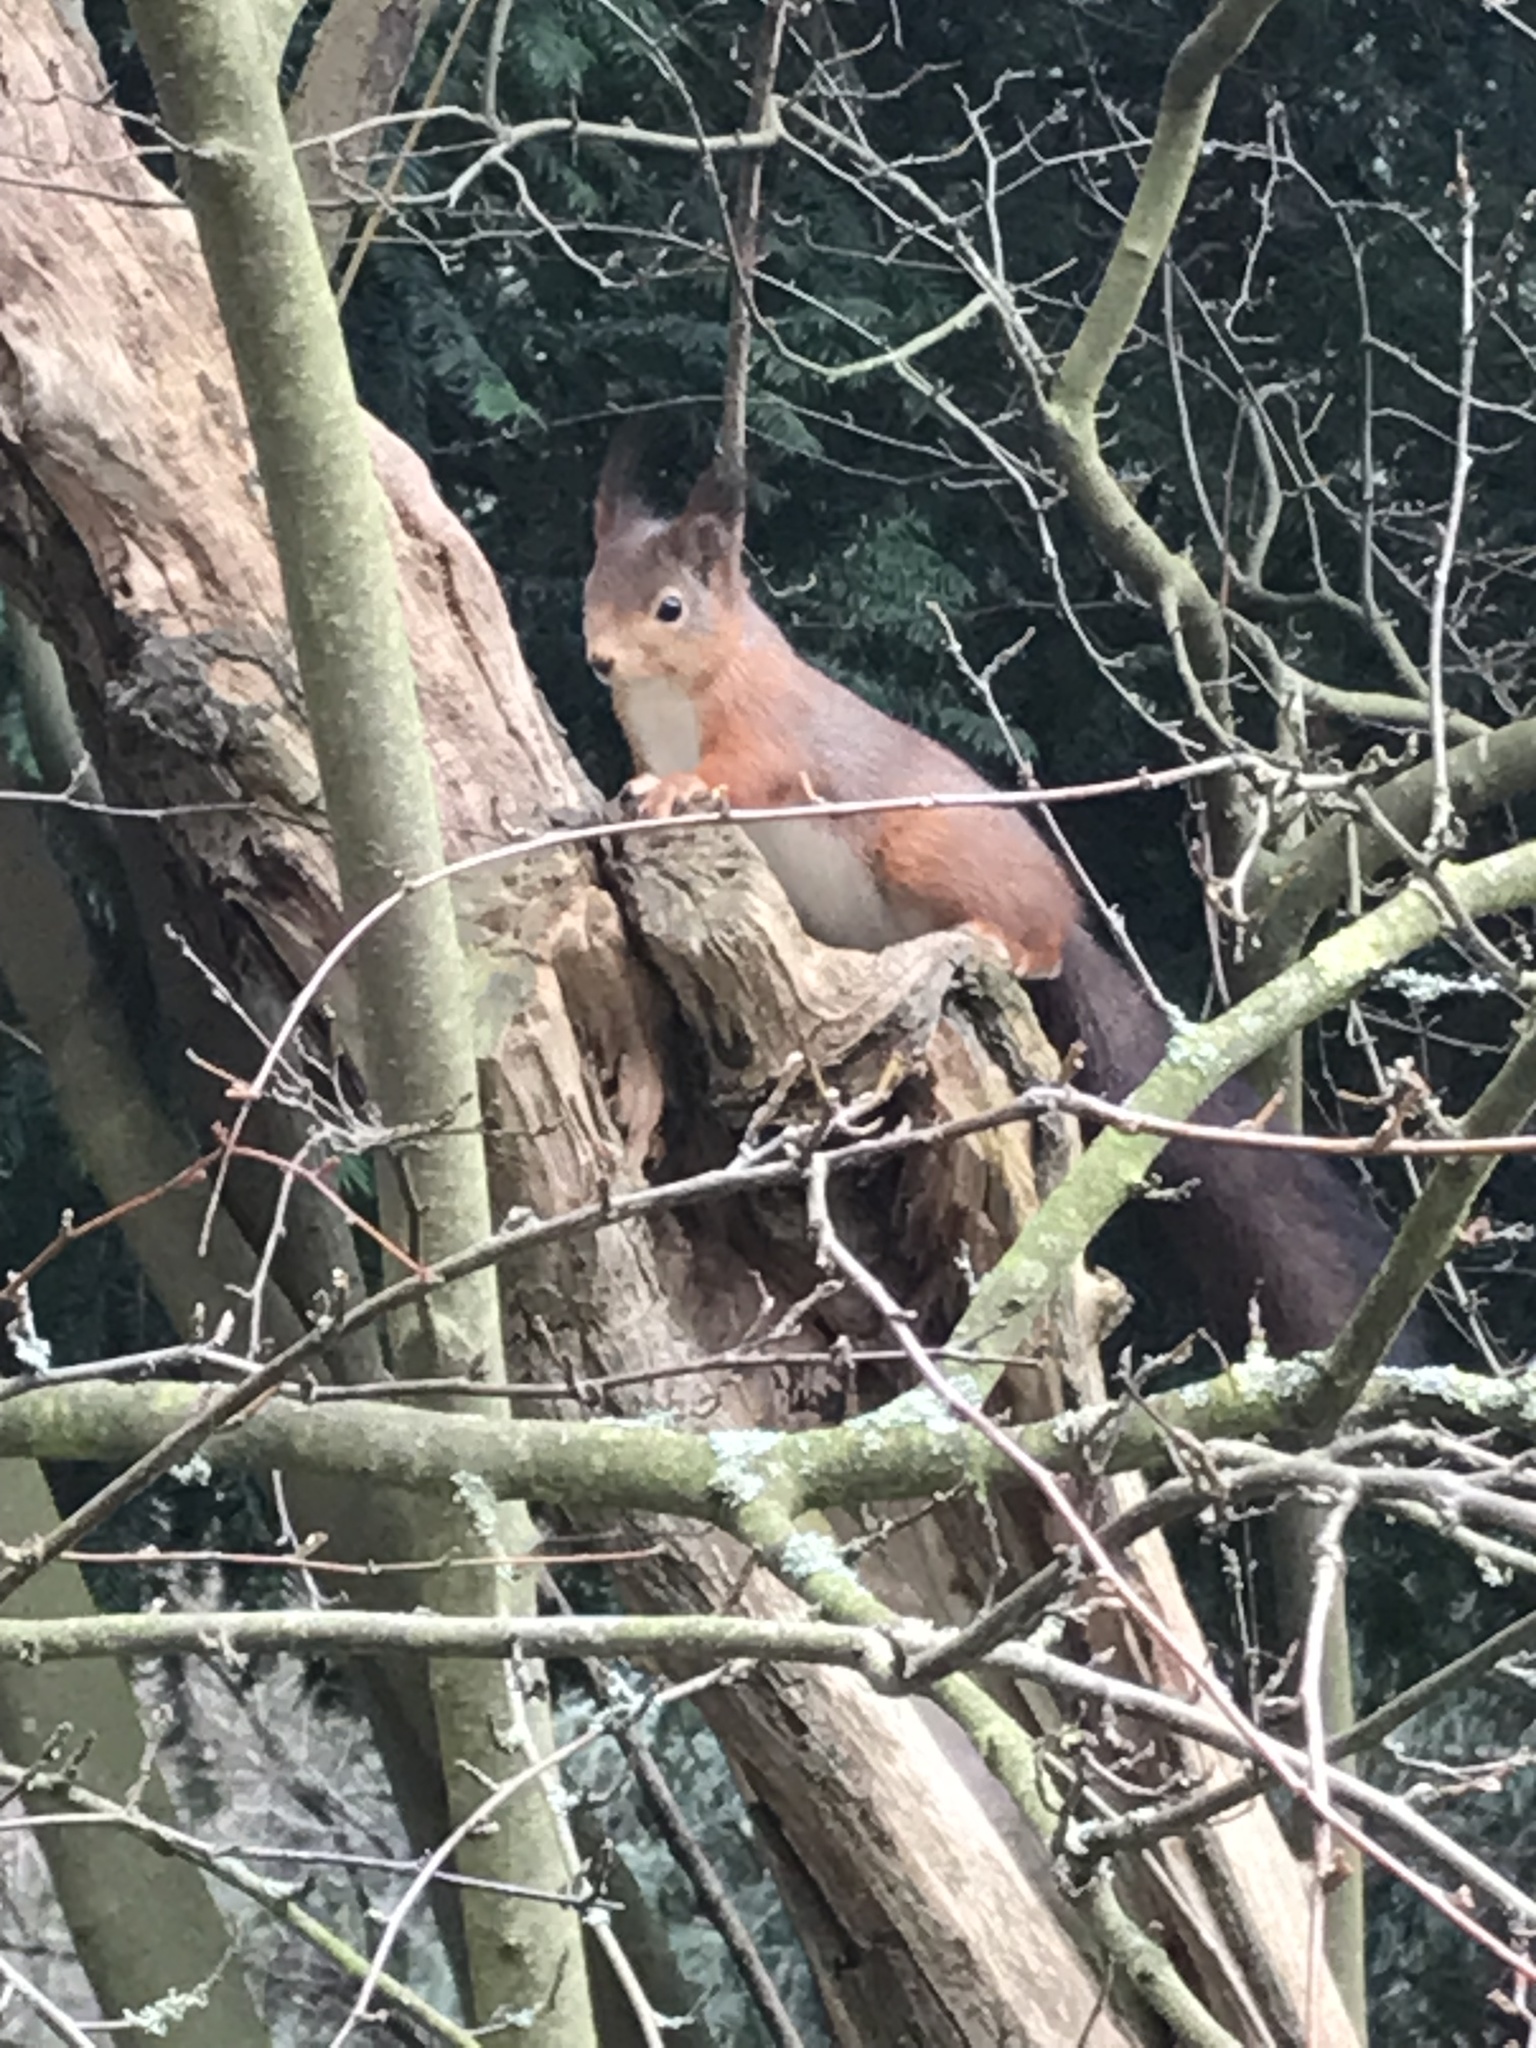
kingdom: Animalia
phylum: Chordata
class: Mammalia
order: Rodentia
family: Sciuridae
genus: Sciurus
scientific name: Sciurus vulgaris
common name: Eurasian red squirrel
